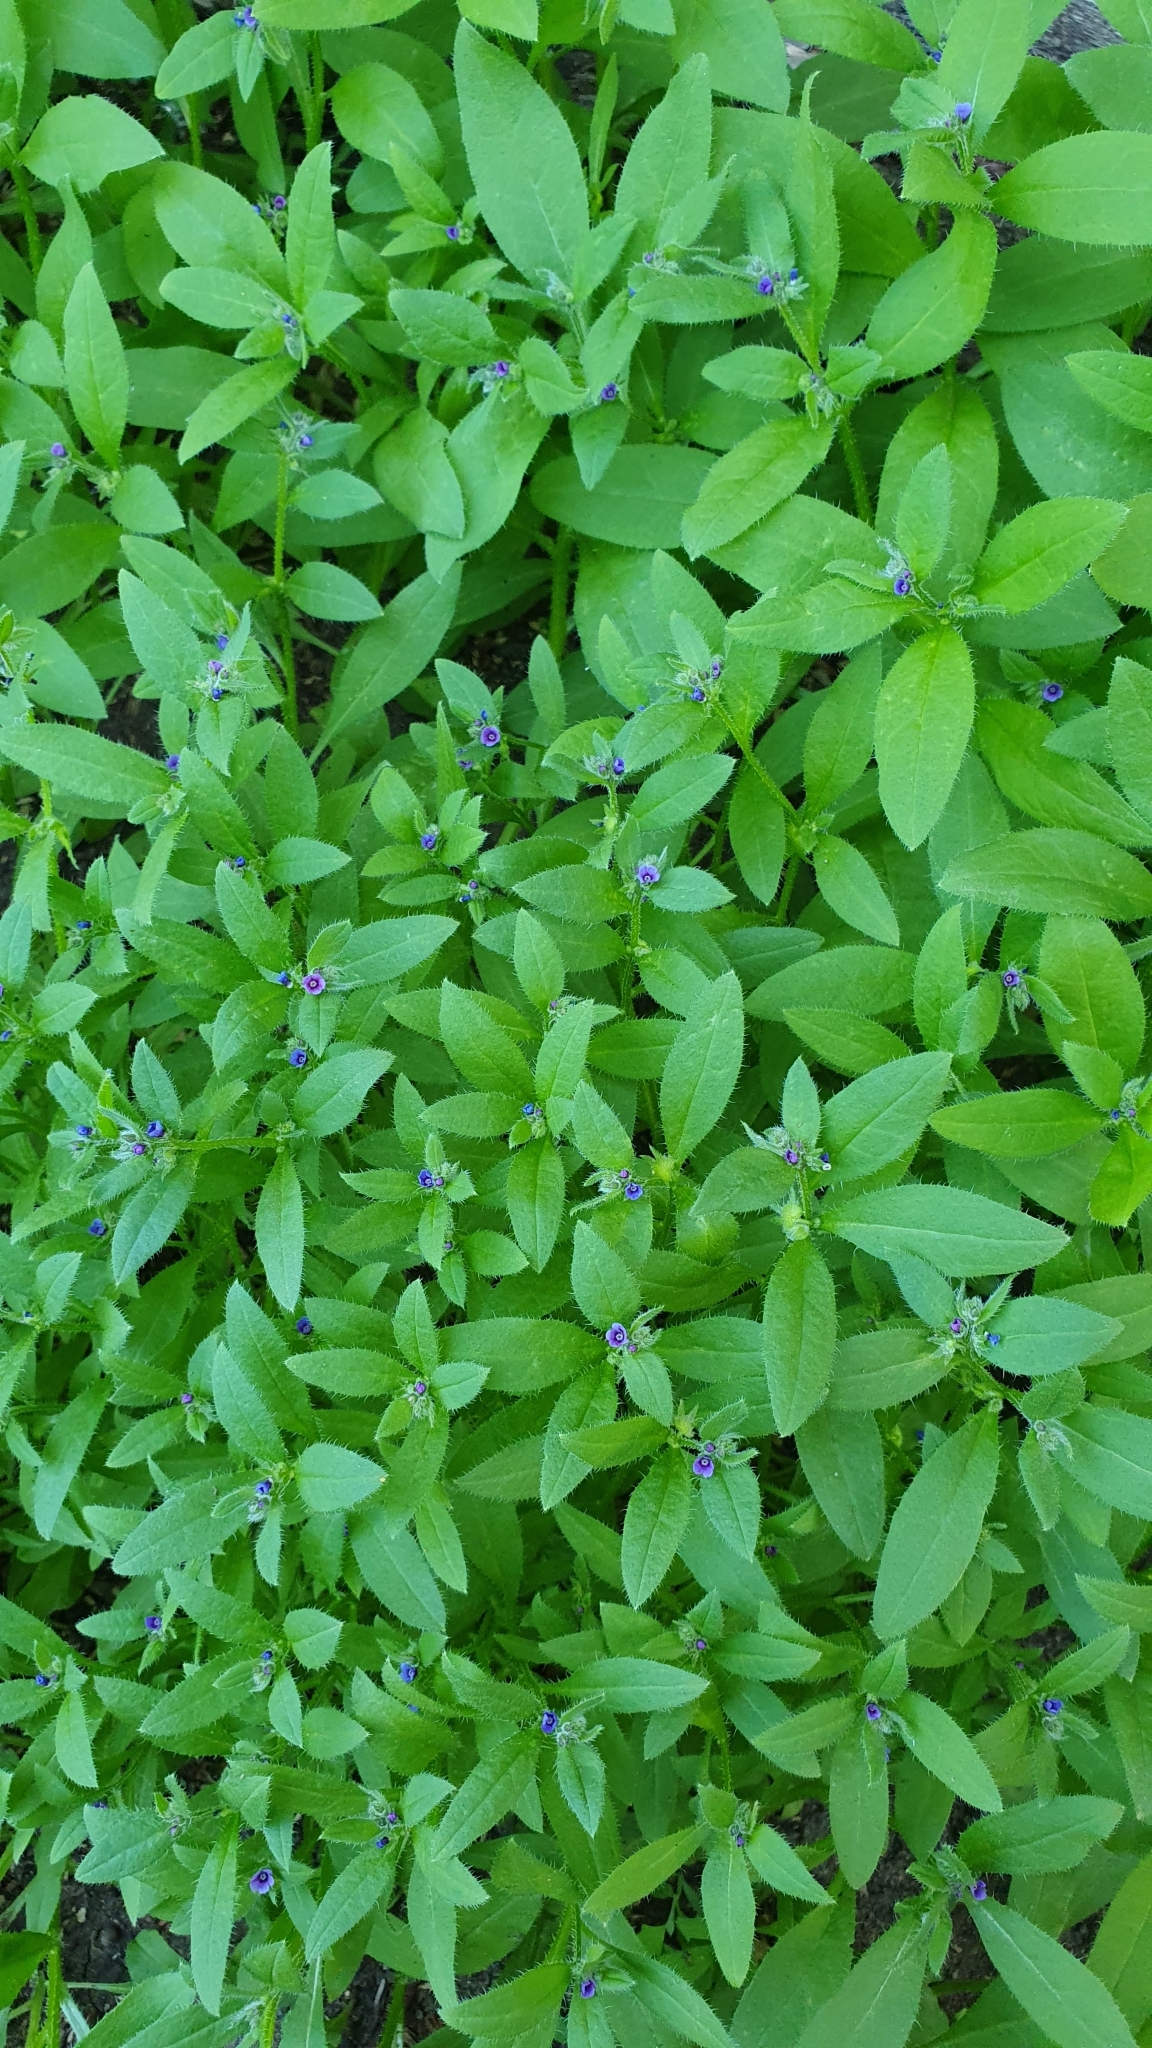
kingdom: Plantae
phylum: Tracheophyta
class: Magnoliopsida
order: Boraginales
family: Boraginaceae
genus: Asperugo
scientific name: Asperugo procumbens
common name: Madwort
